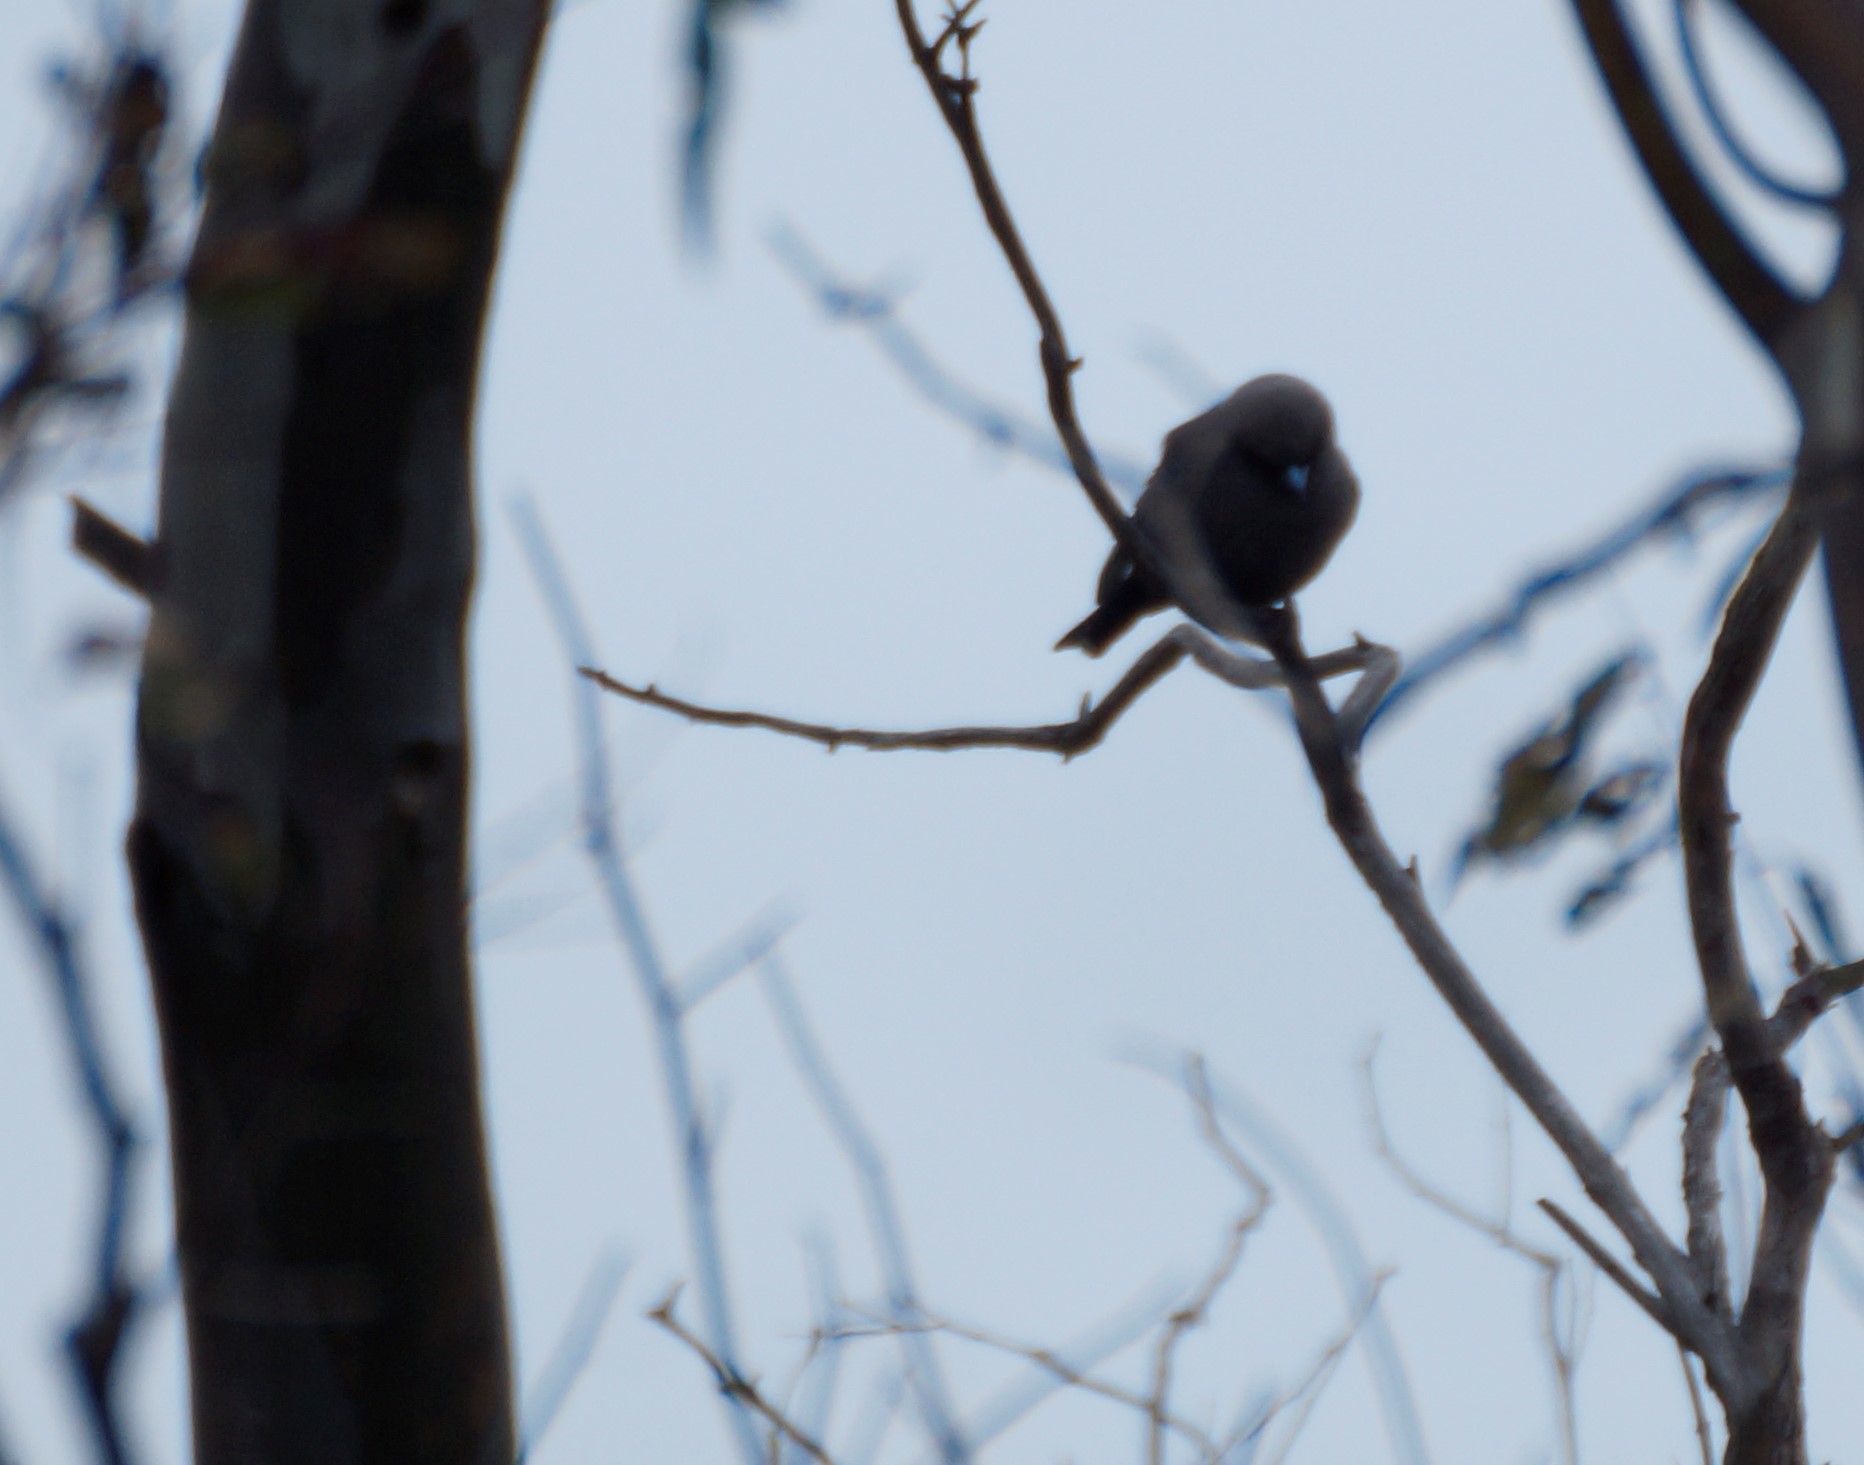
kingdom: Animalia
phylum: Chordata
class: Aves
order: Passeriformes
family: Artamidae
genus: Artamus
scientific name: Artamus cyanopterus
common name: Dusky woodswallow
